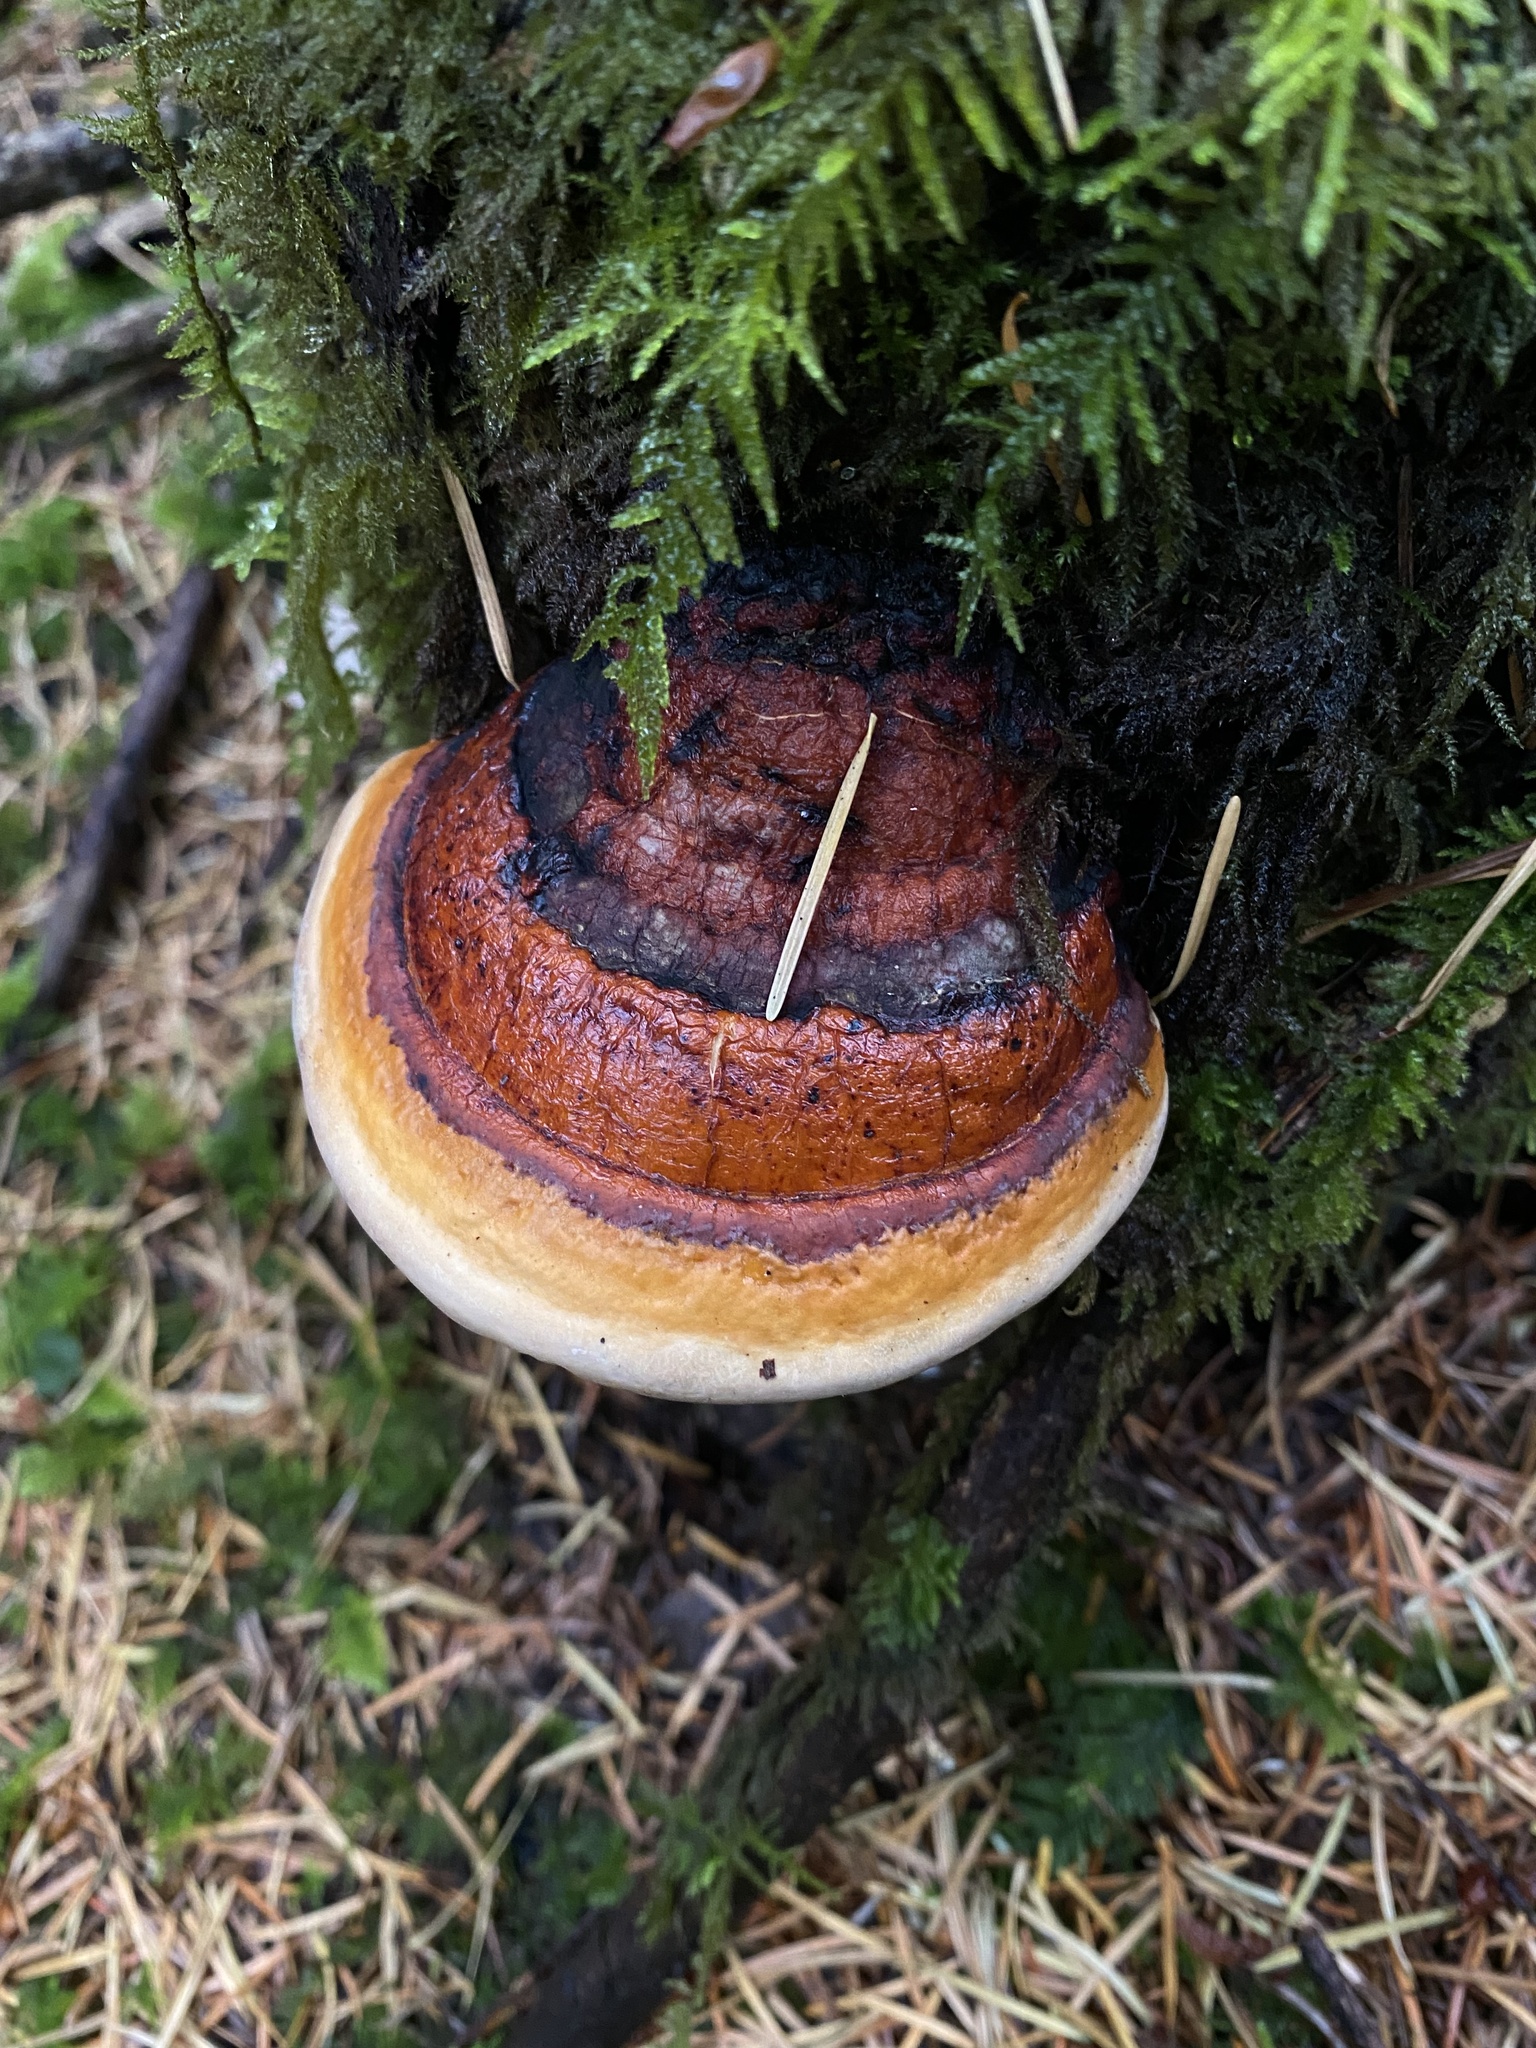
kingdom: Fungi
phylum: Basidiomycota
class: Agaricomycetes
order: Polyporales
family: Fomitopsidaceae
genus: Fomitopsis
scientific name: Fomitopsis mounceae
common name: Northern red belt
